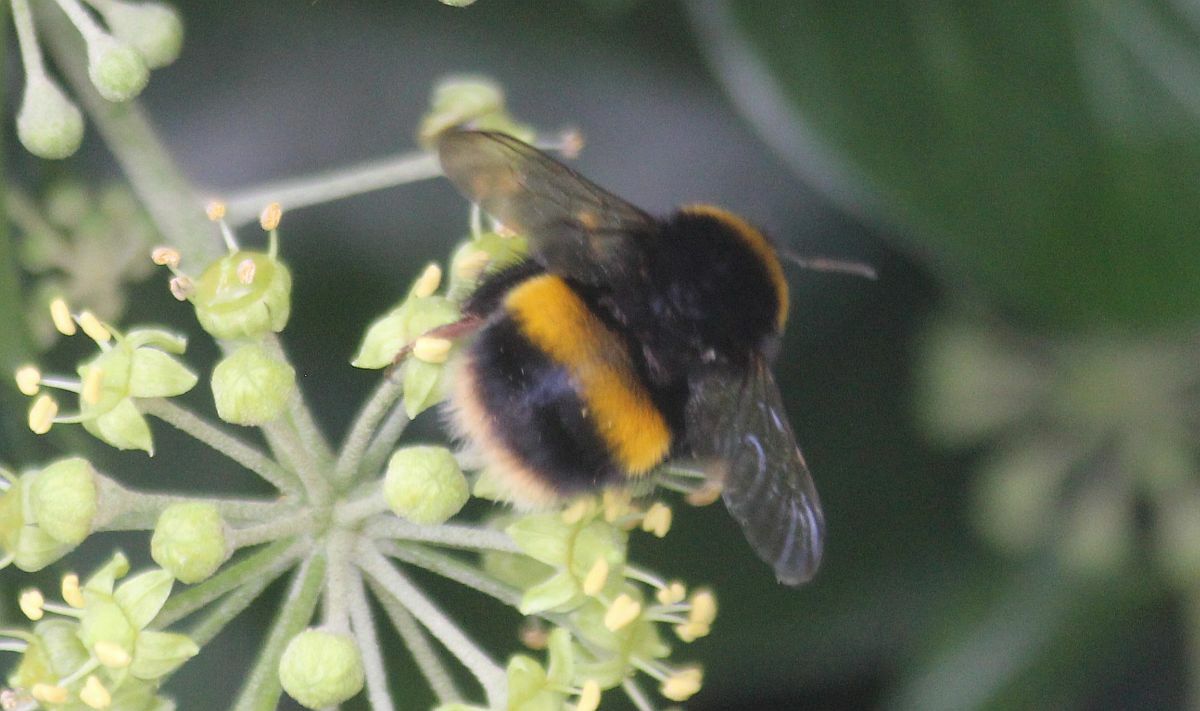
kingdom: Animalia
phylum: Arthropoda
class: Insecta
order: Hymenoptera
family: Apidae
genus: Bombus
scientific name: Bombus terrestris
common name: Buff-tailed bumblebee
